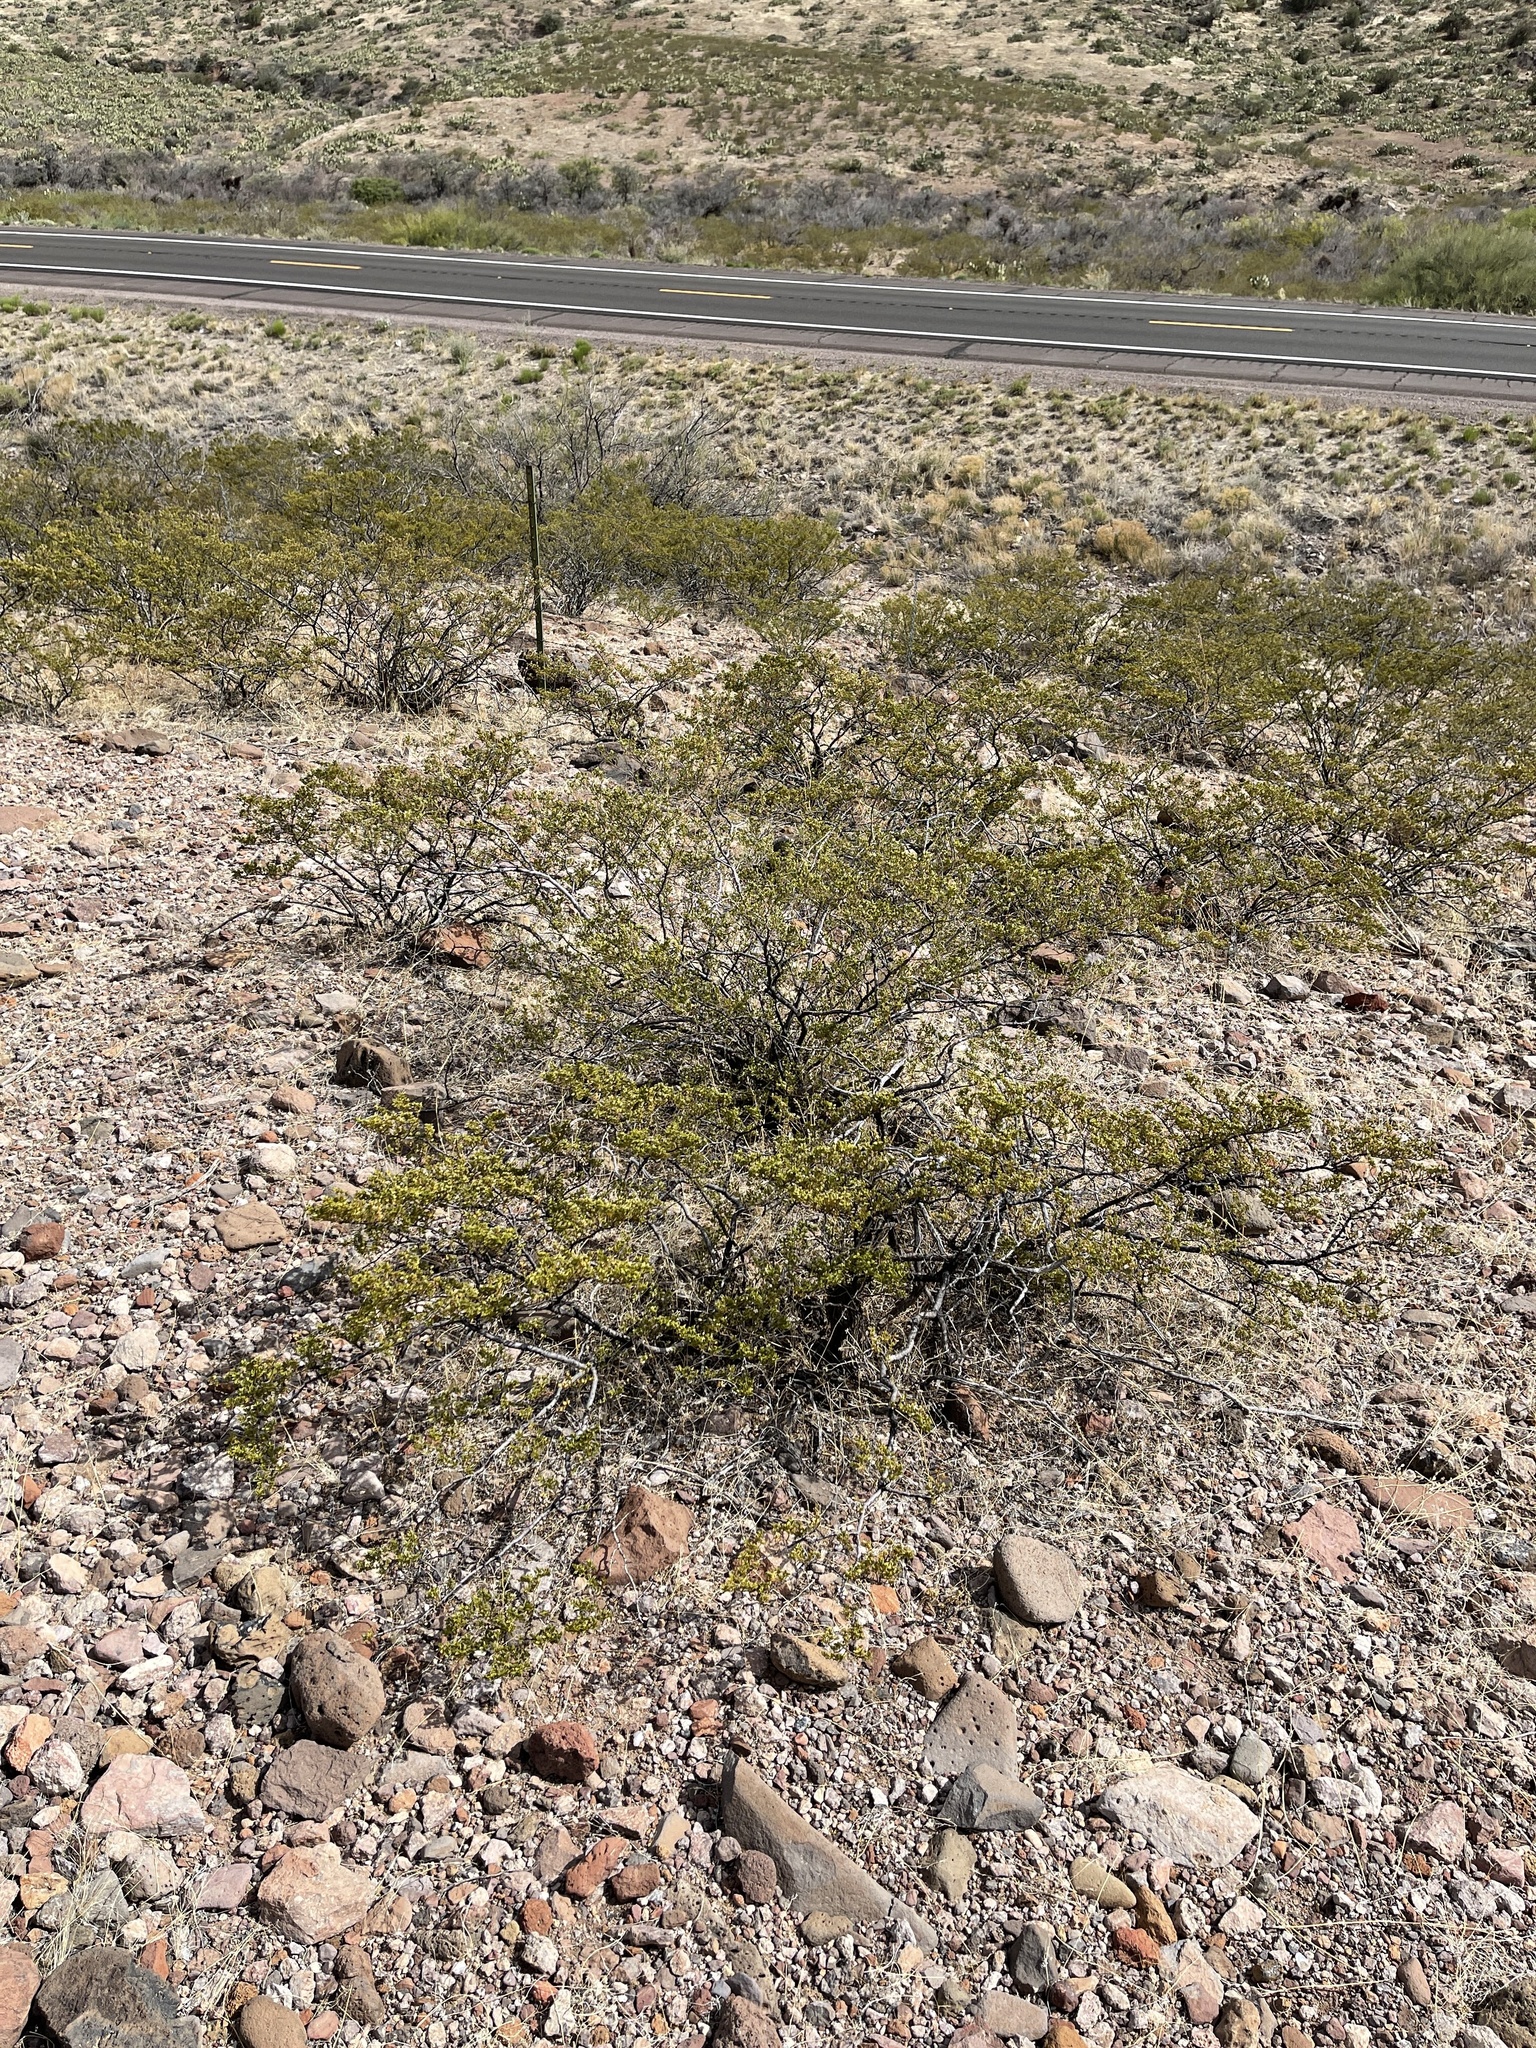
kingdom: Plantae
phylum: Tracheophyta
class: Magnoliopsida
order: Zygophyllales
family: Zygophyllaceae
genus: Larrea
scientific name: Larrea tridentata
